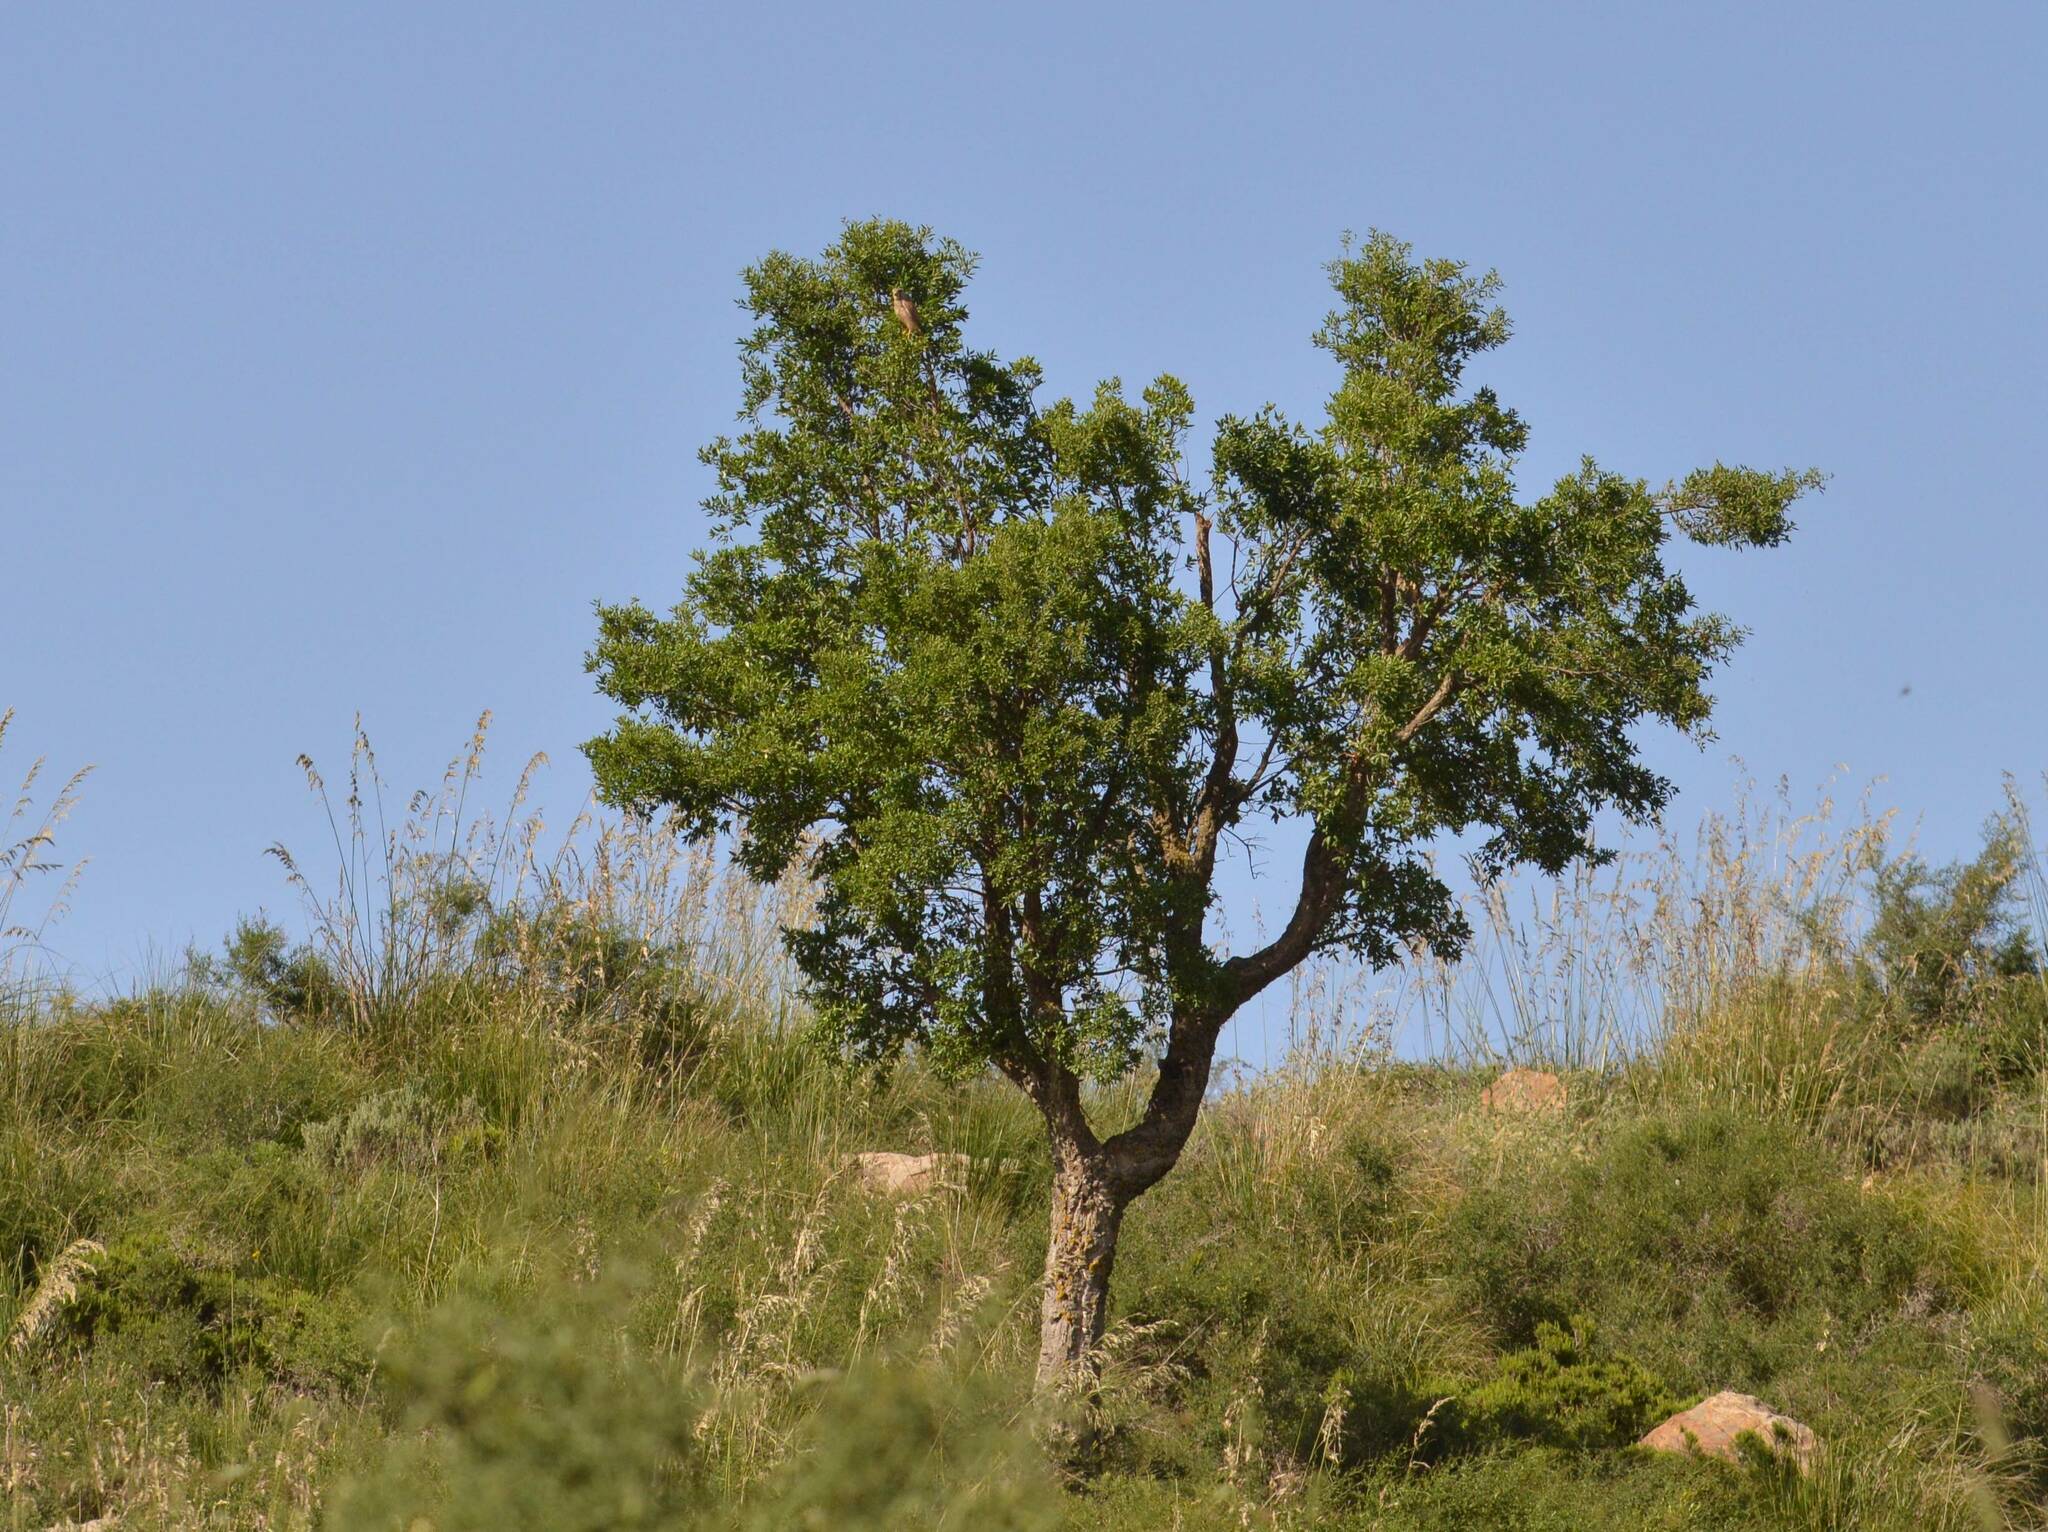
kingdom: Plantae
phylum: Tracheophyta
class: Magnoliopsida
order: Fagales
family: Fagaceae
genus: Quercus
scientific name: Quercus suber
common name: Cork oak
